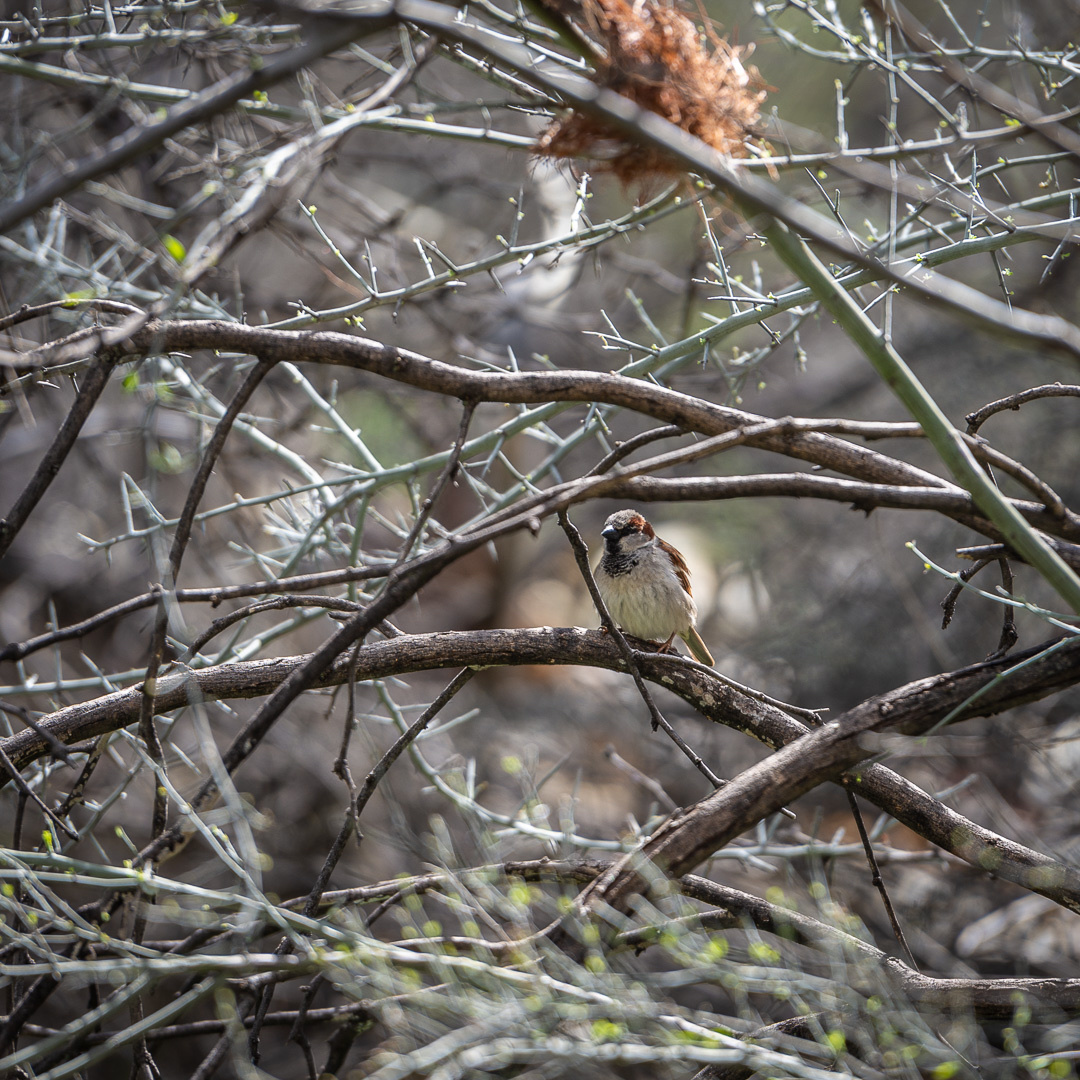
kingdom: Animalia
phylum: Chordata
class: Aves
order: Passeriformes
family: Passeridae
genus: Passer
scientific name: Passer domesticus
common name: House sparrow
